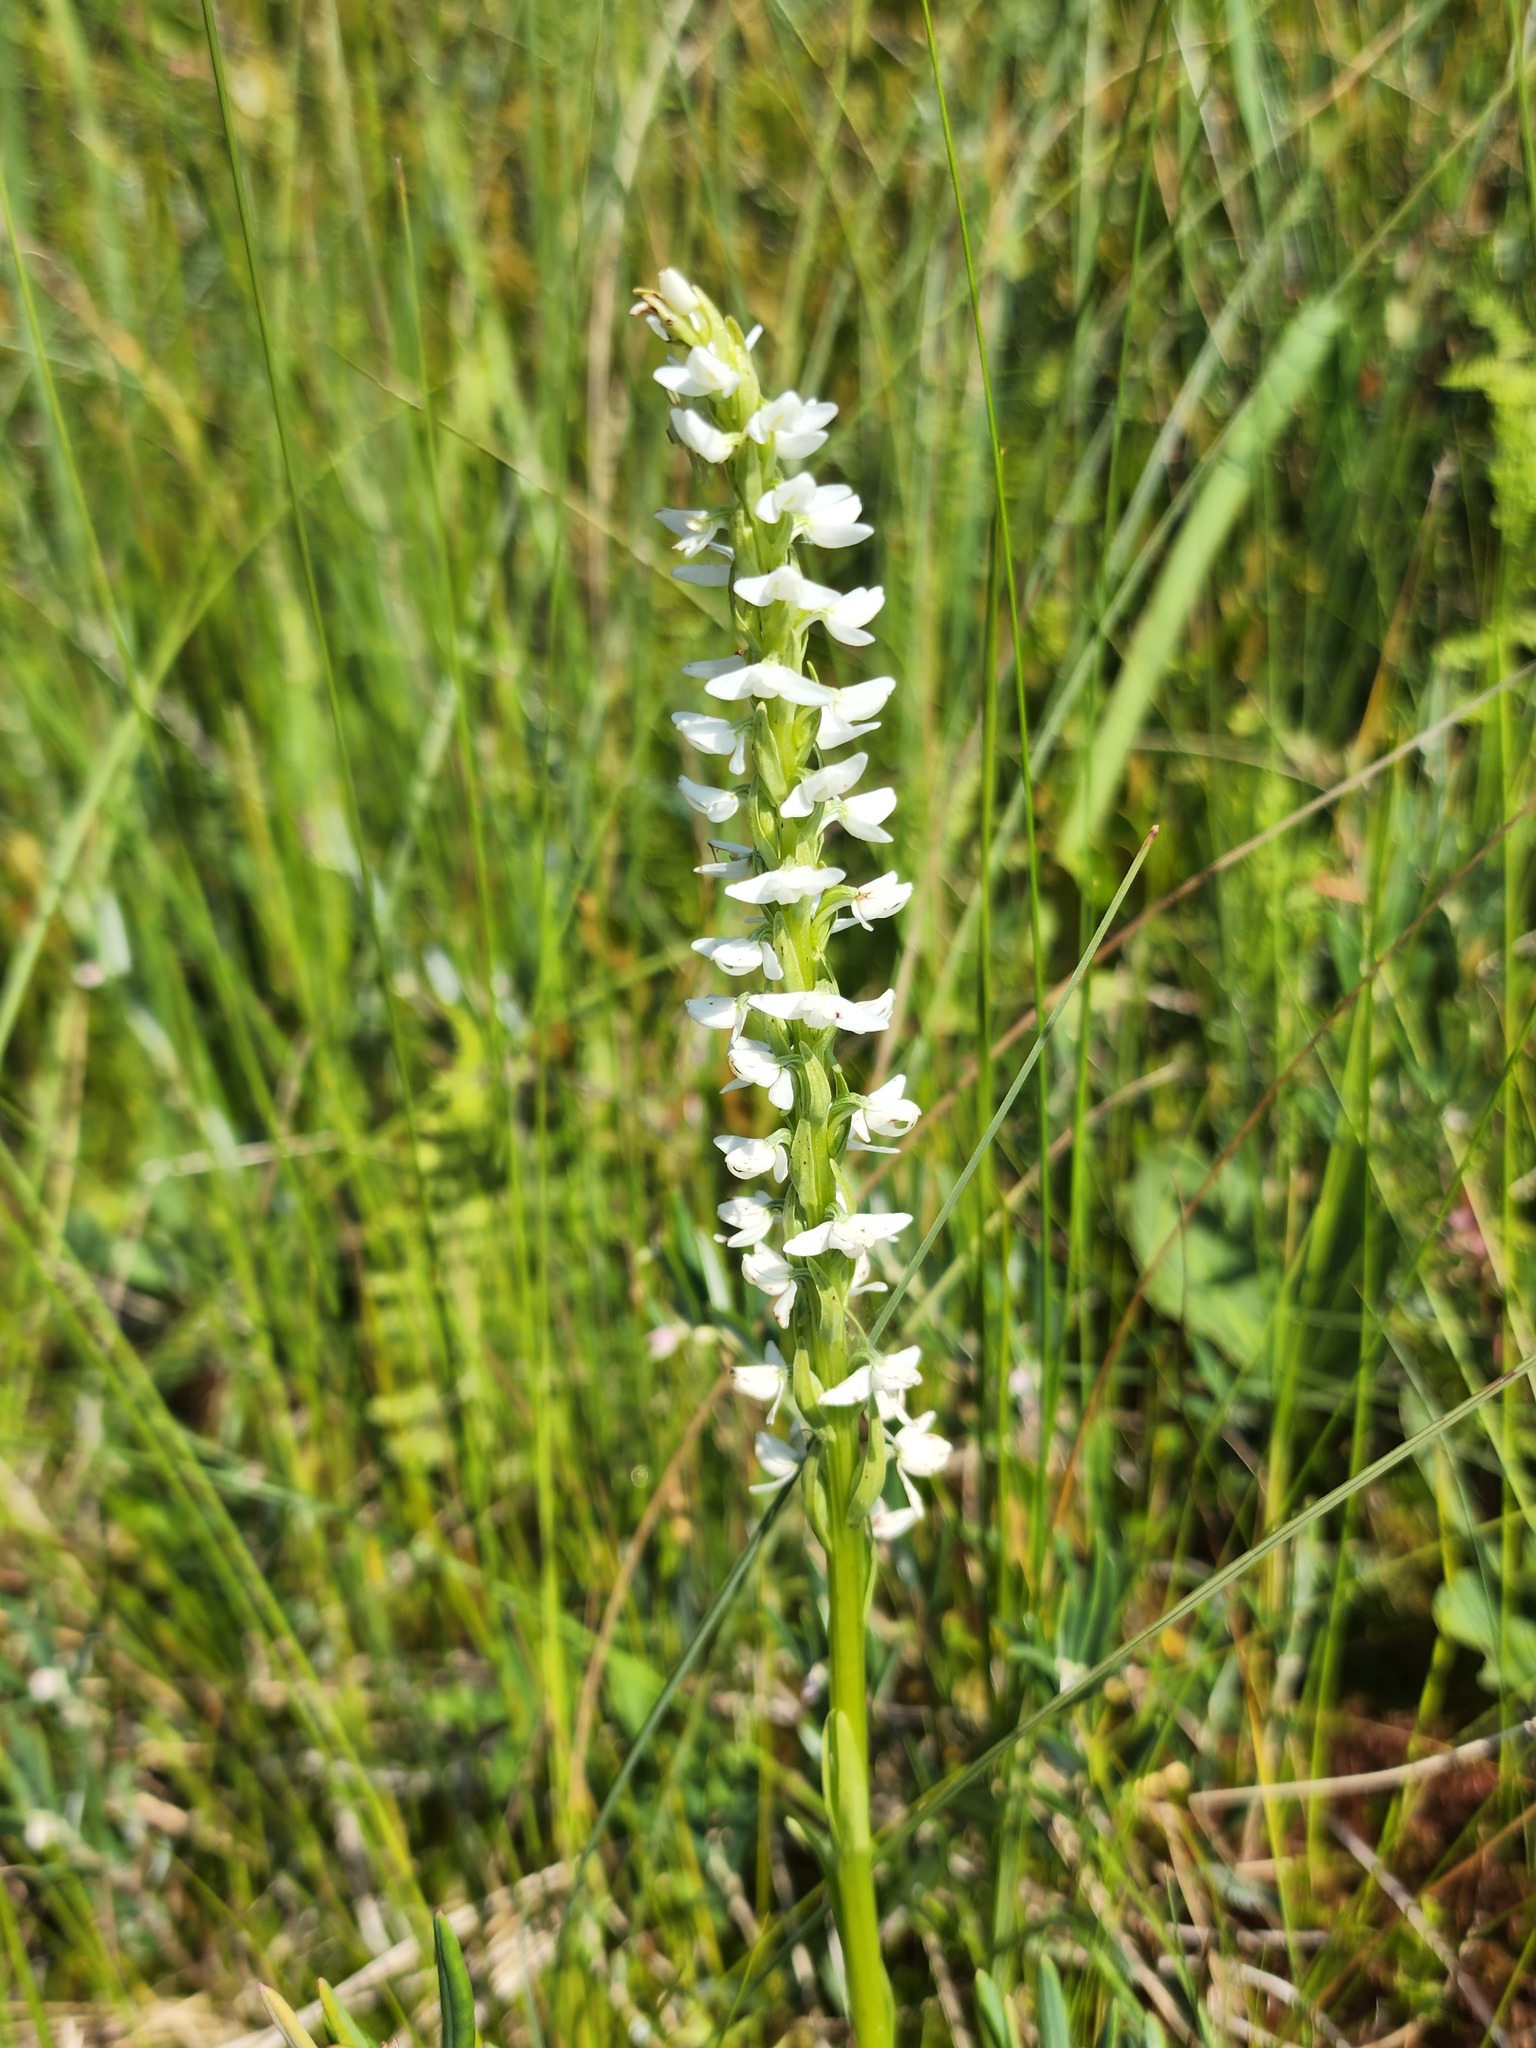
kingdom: Plantae
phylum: Tracheophyta
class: Liliopsida
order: Asparagales
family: Orchidaceae
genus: Platanthera
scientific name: Platanthera dilatata
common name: Bog candles
